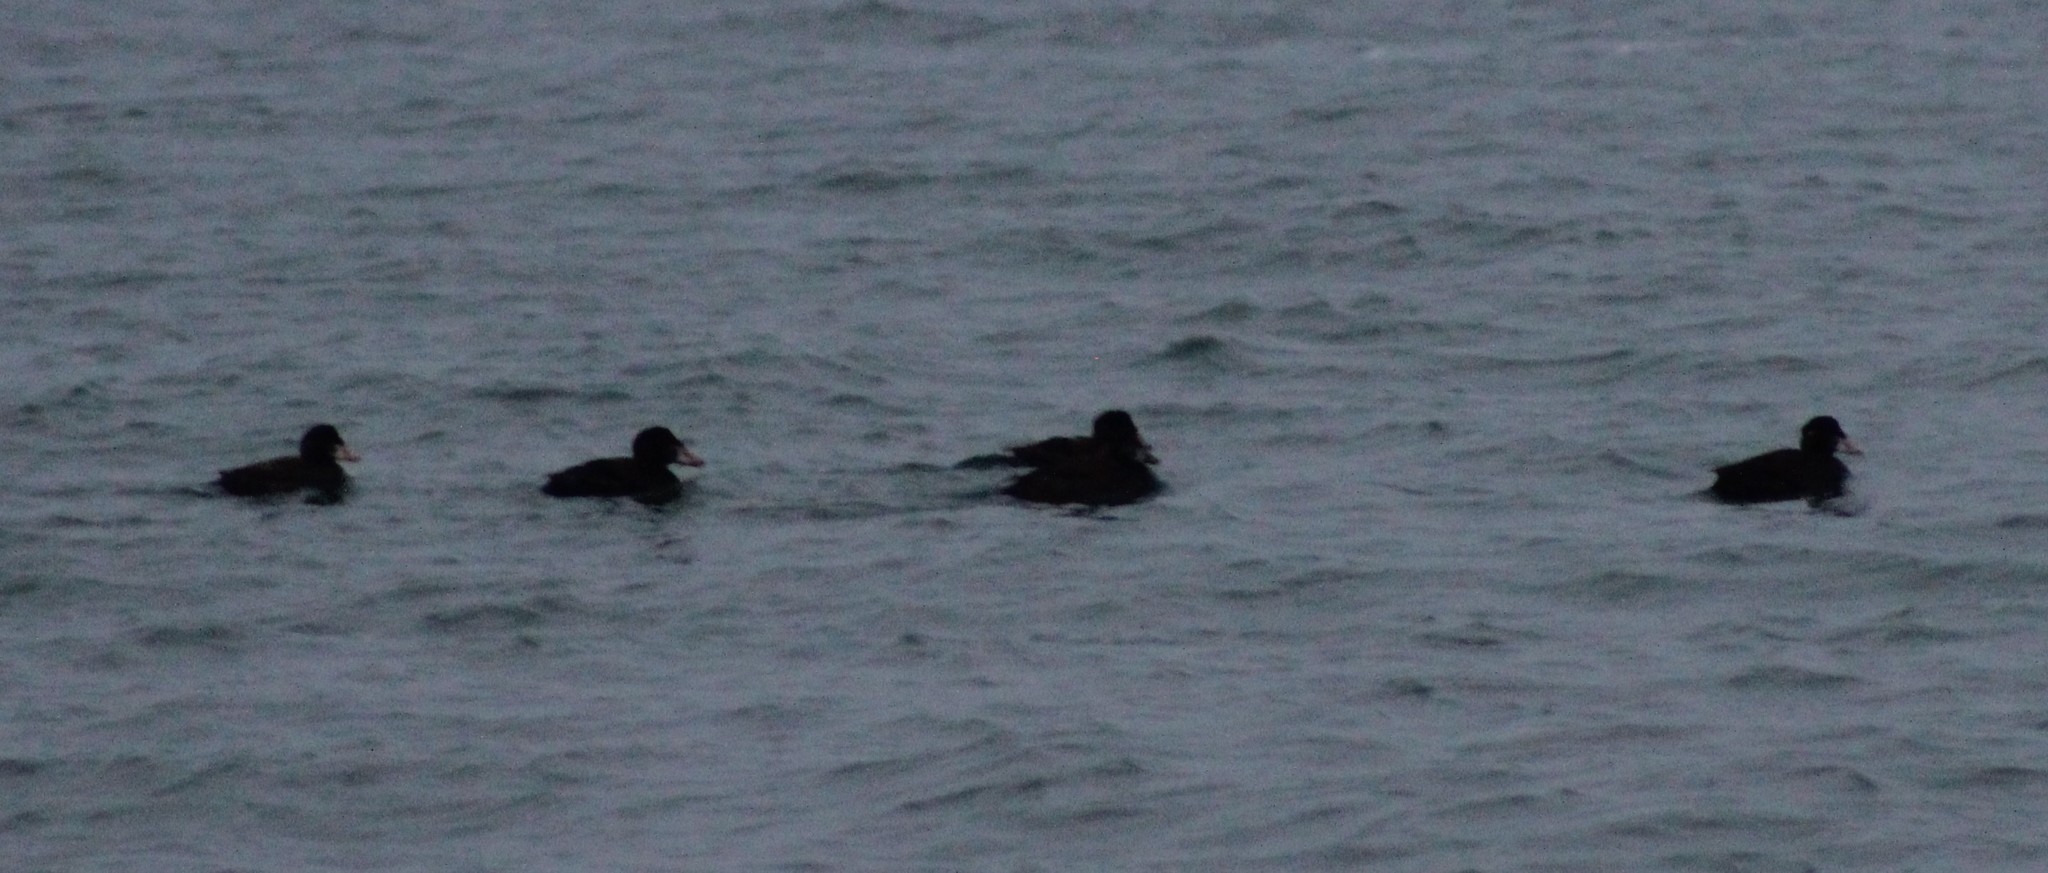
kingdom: Animalia
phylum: Chordata
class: Aves
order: Anseriformes
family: Anatidae
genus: Melanitta
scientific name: Melanitta perspicillata
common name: Surf scoter
